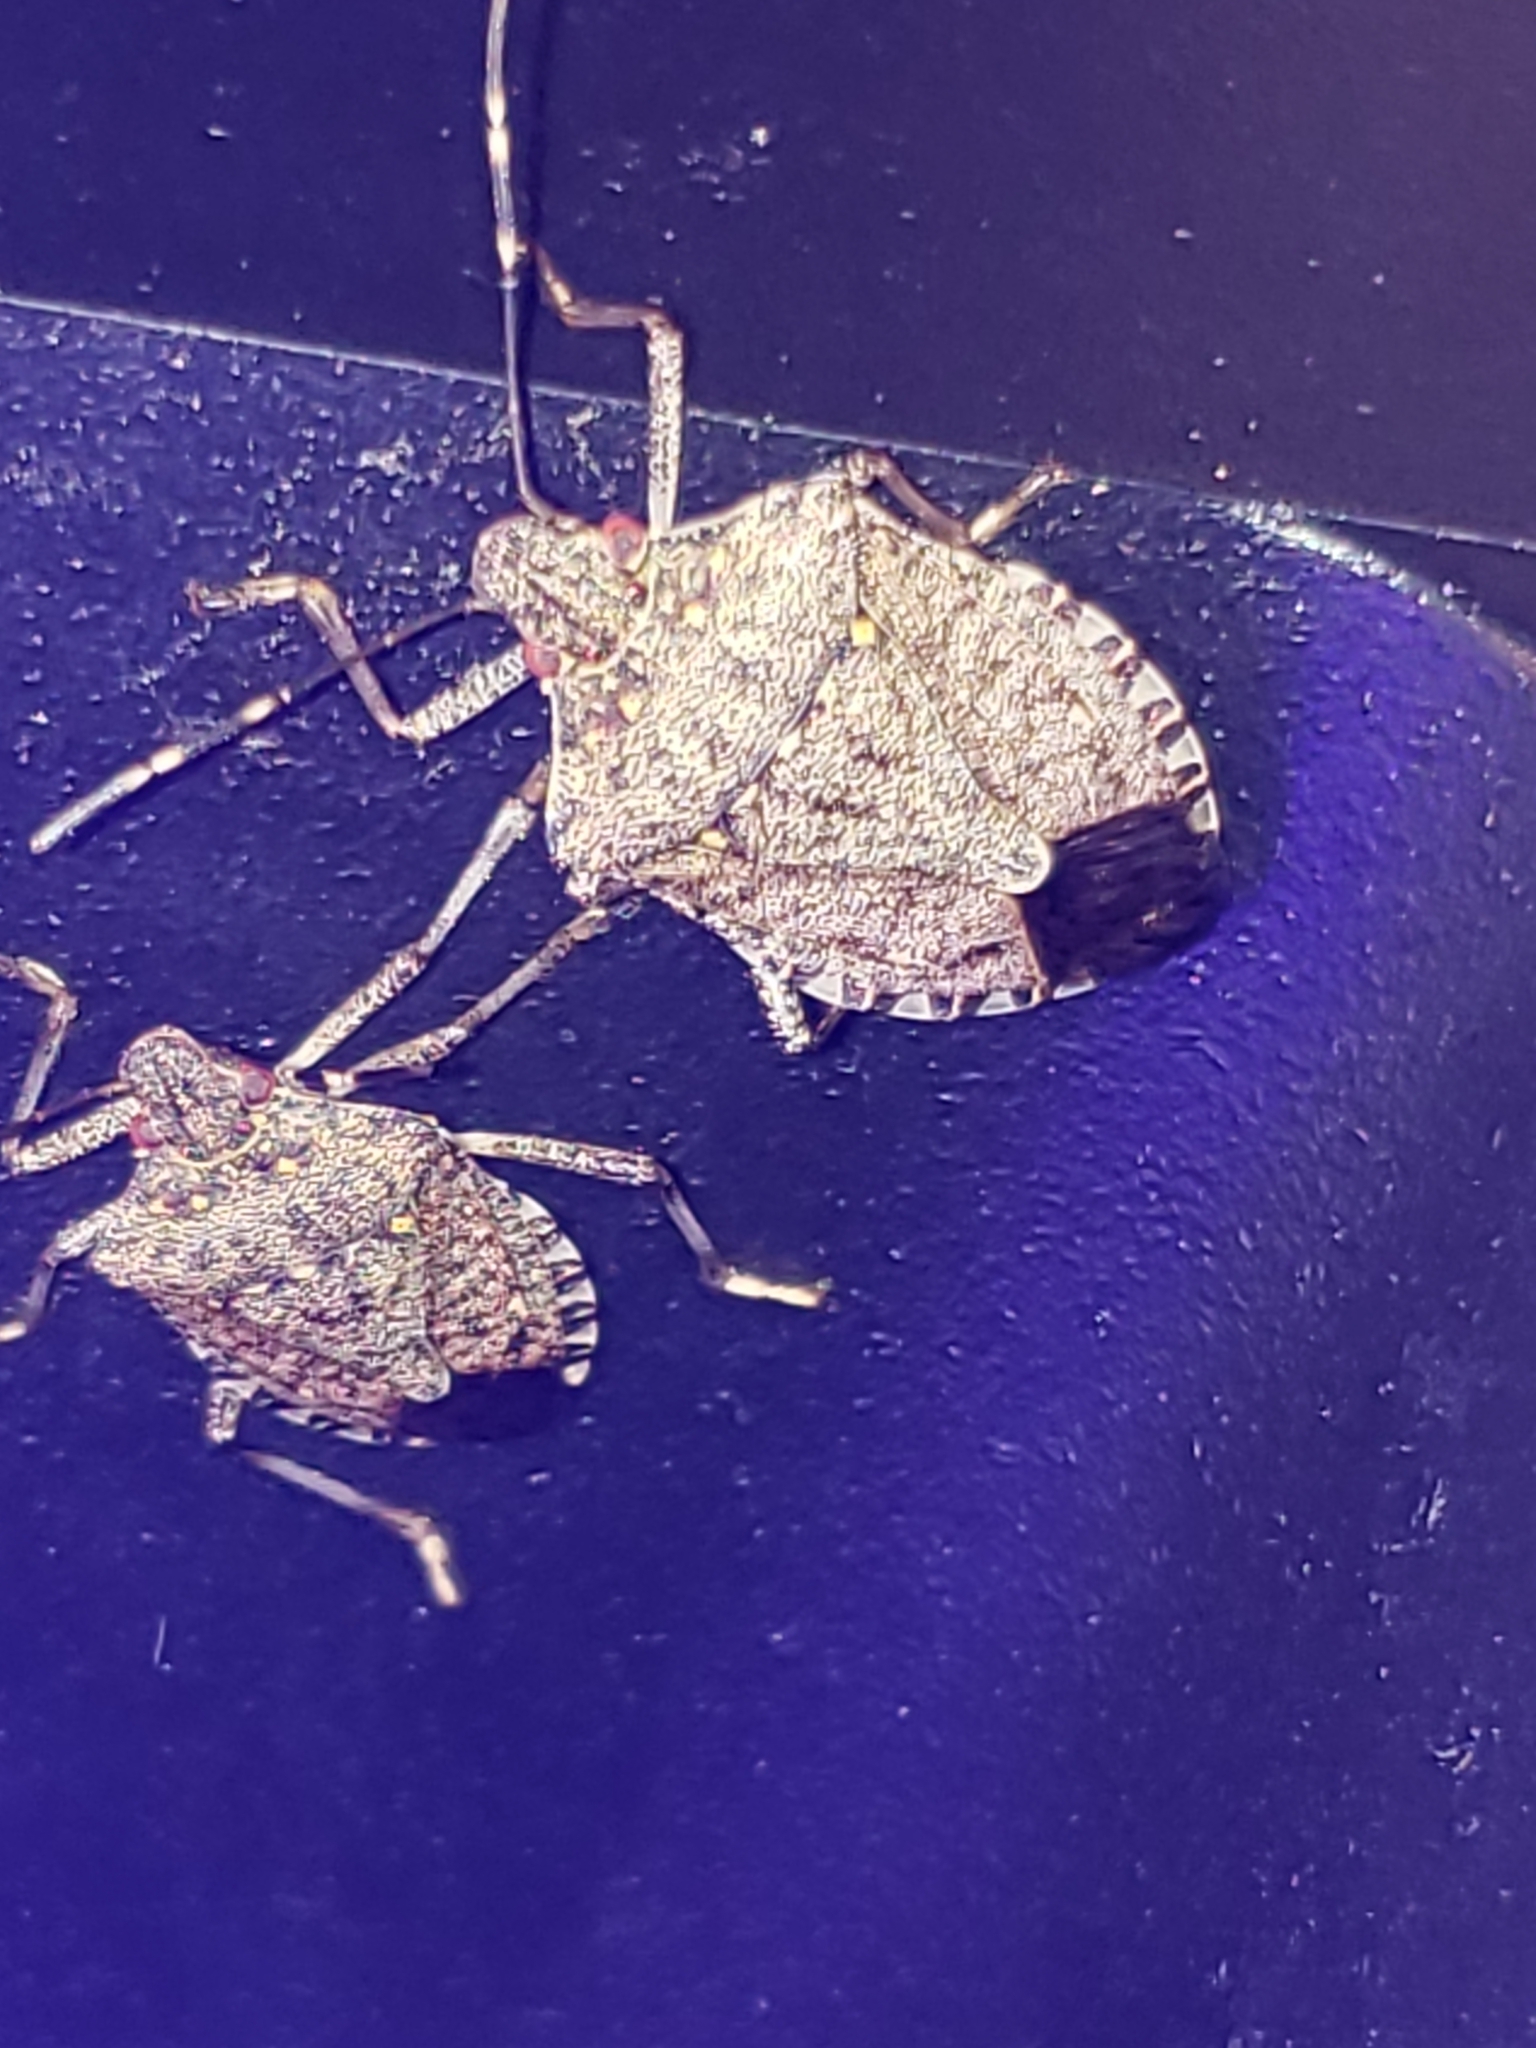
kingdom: Animalia
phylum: Arthropoda
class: Insecta
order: Hemiptera
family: Pentatomidae
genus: Halyomorpha
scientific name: Halyomorpha halys
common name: Brown marmorated stink bug
